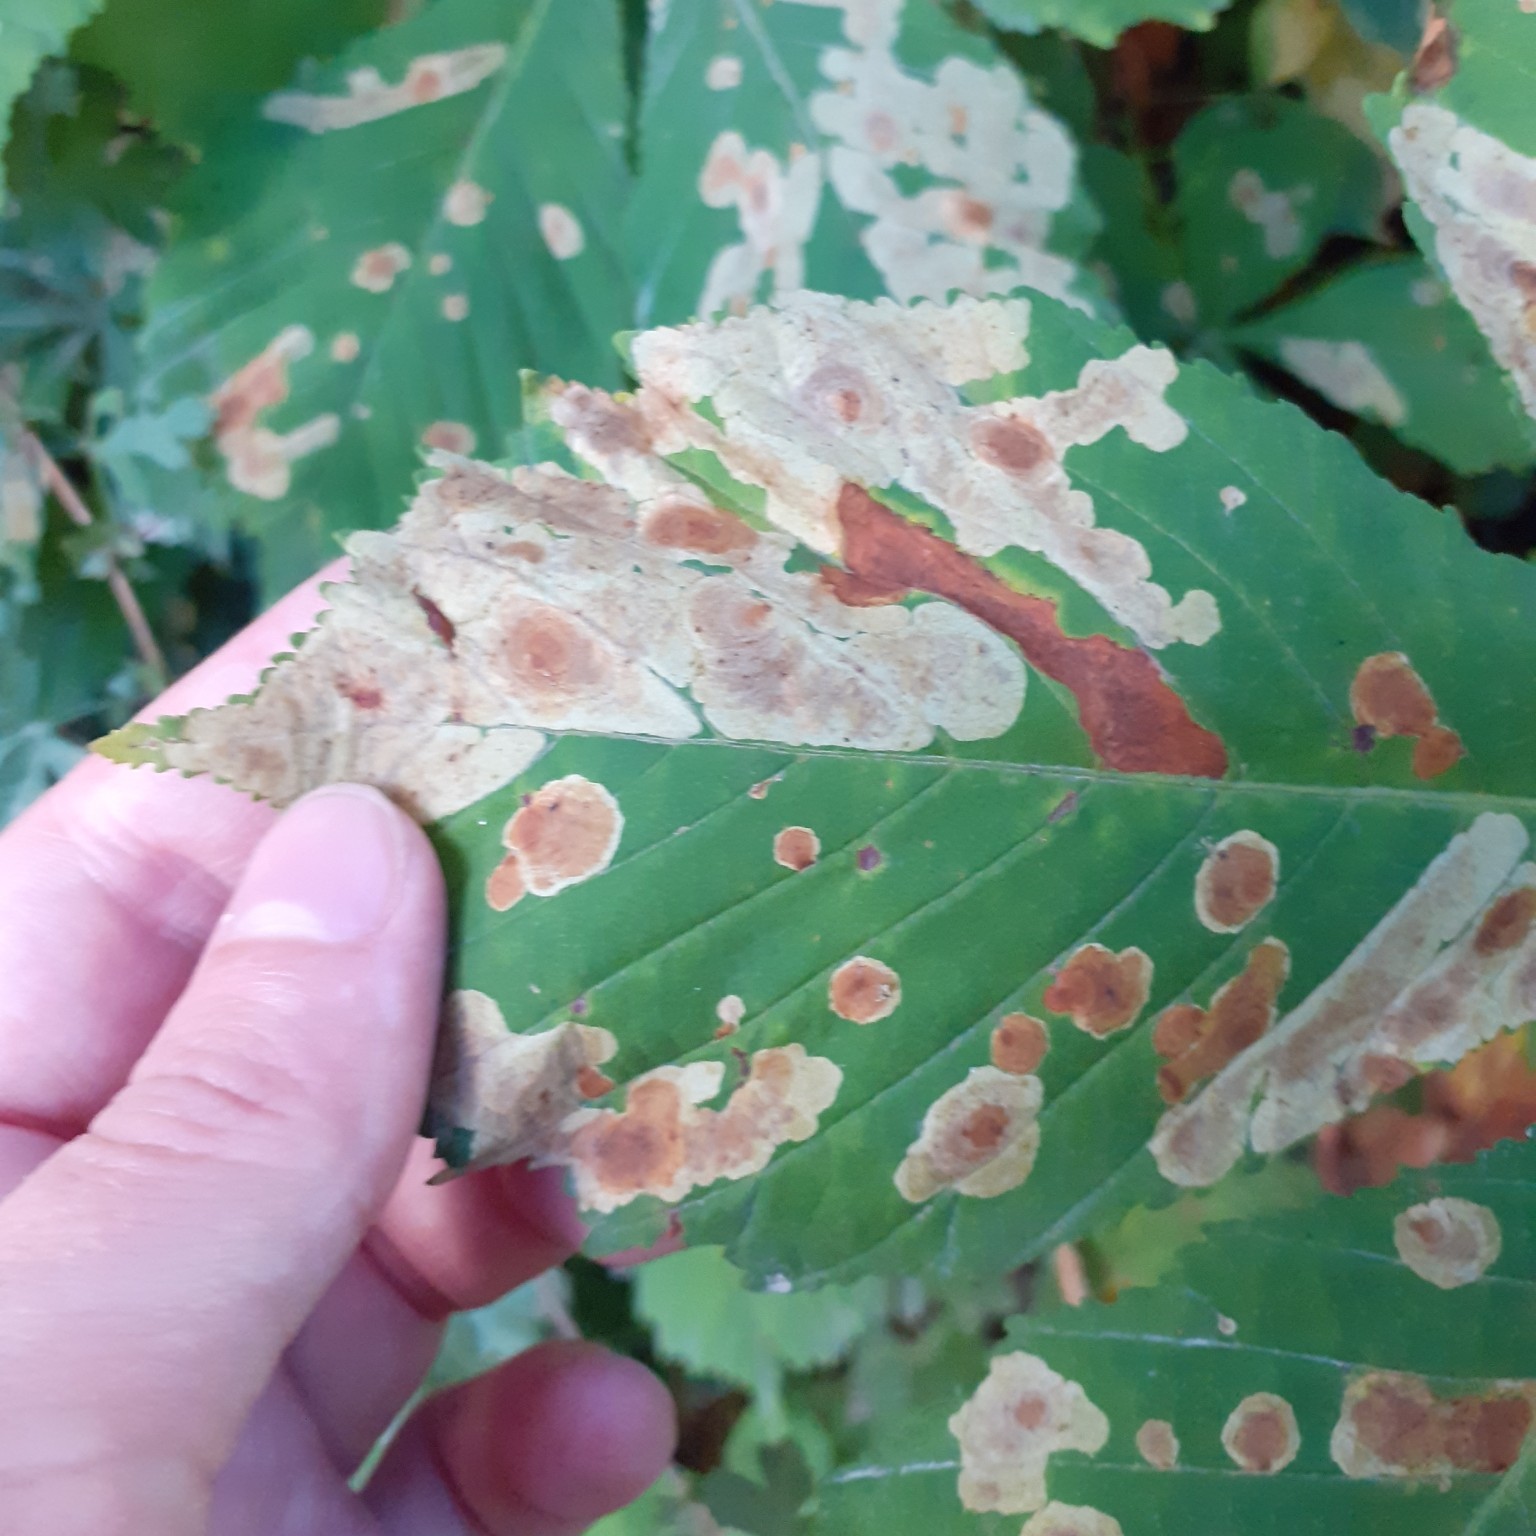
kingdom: Animalia
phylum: Arthropoda
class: Insecta
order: Lepidoptera
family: Gracillariidae
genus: Cameraria
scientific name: Cameraria ohridella
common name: Horse-chestnut leaf-miner
